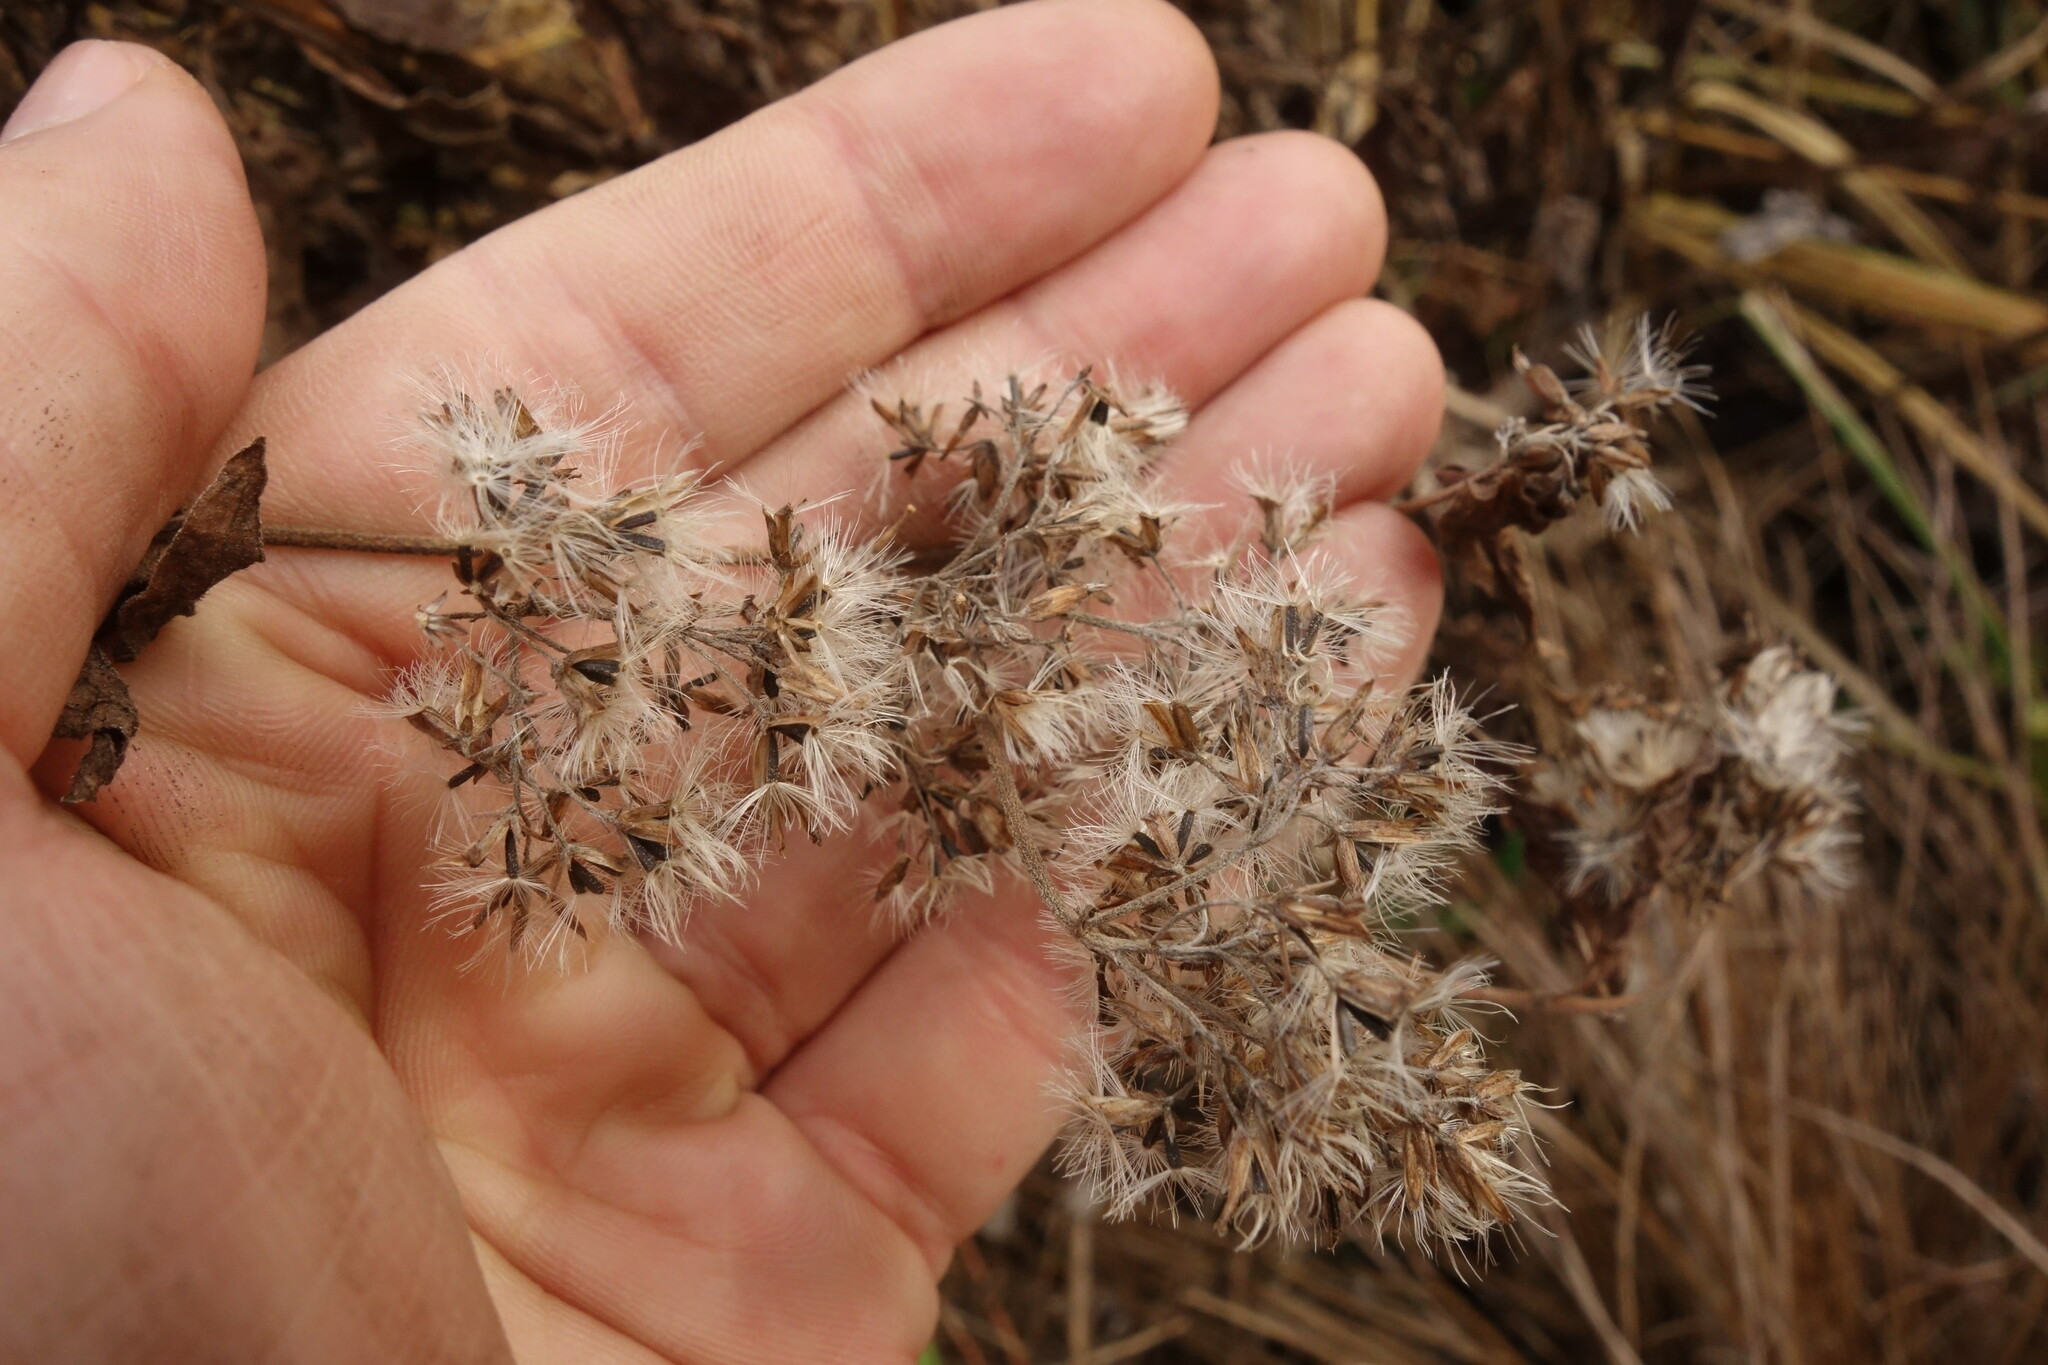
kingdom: Plantae
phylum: Tracheophyta
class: Magnoliopsida
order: Asterales
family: Asteraceae
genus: Eupatorium
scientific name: Eupatorium cannabinum
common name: Hemp-agrimony
